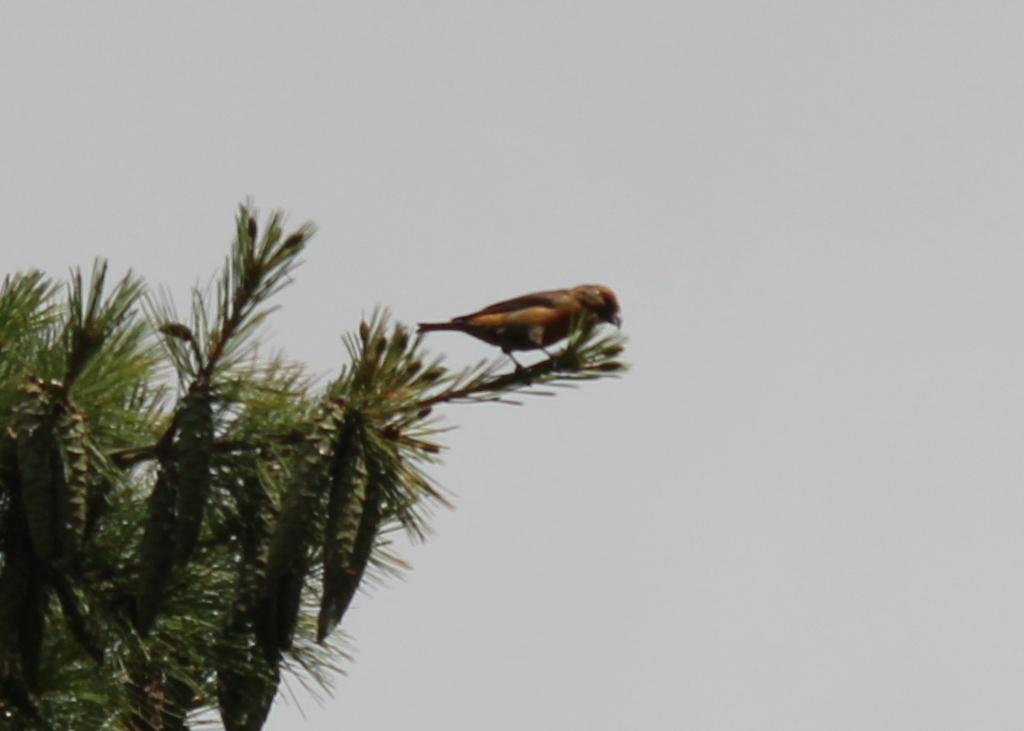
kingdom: Animalia
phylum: Chordata
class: Aves
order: Passeriformes
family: Fringillidae
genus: Loxia
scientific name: Loxia curvirostra
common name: Red crossbill
